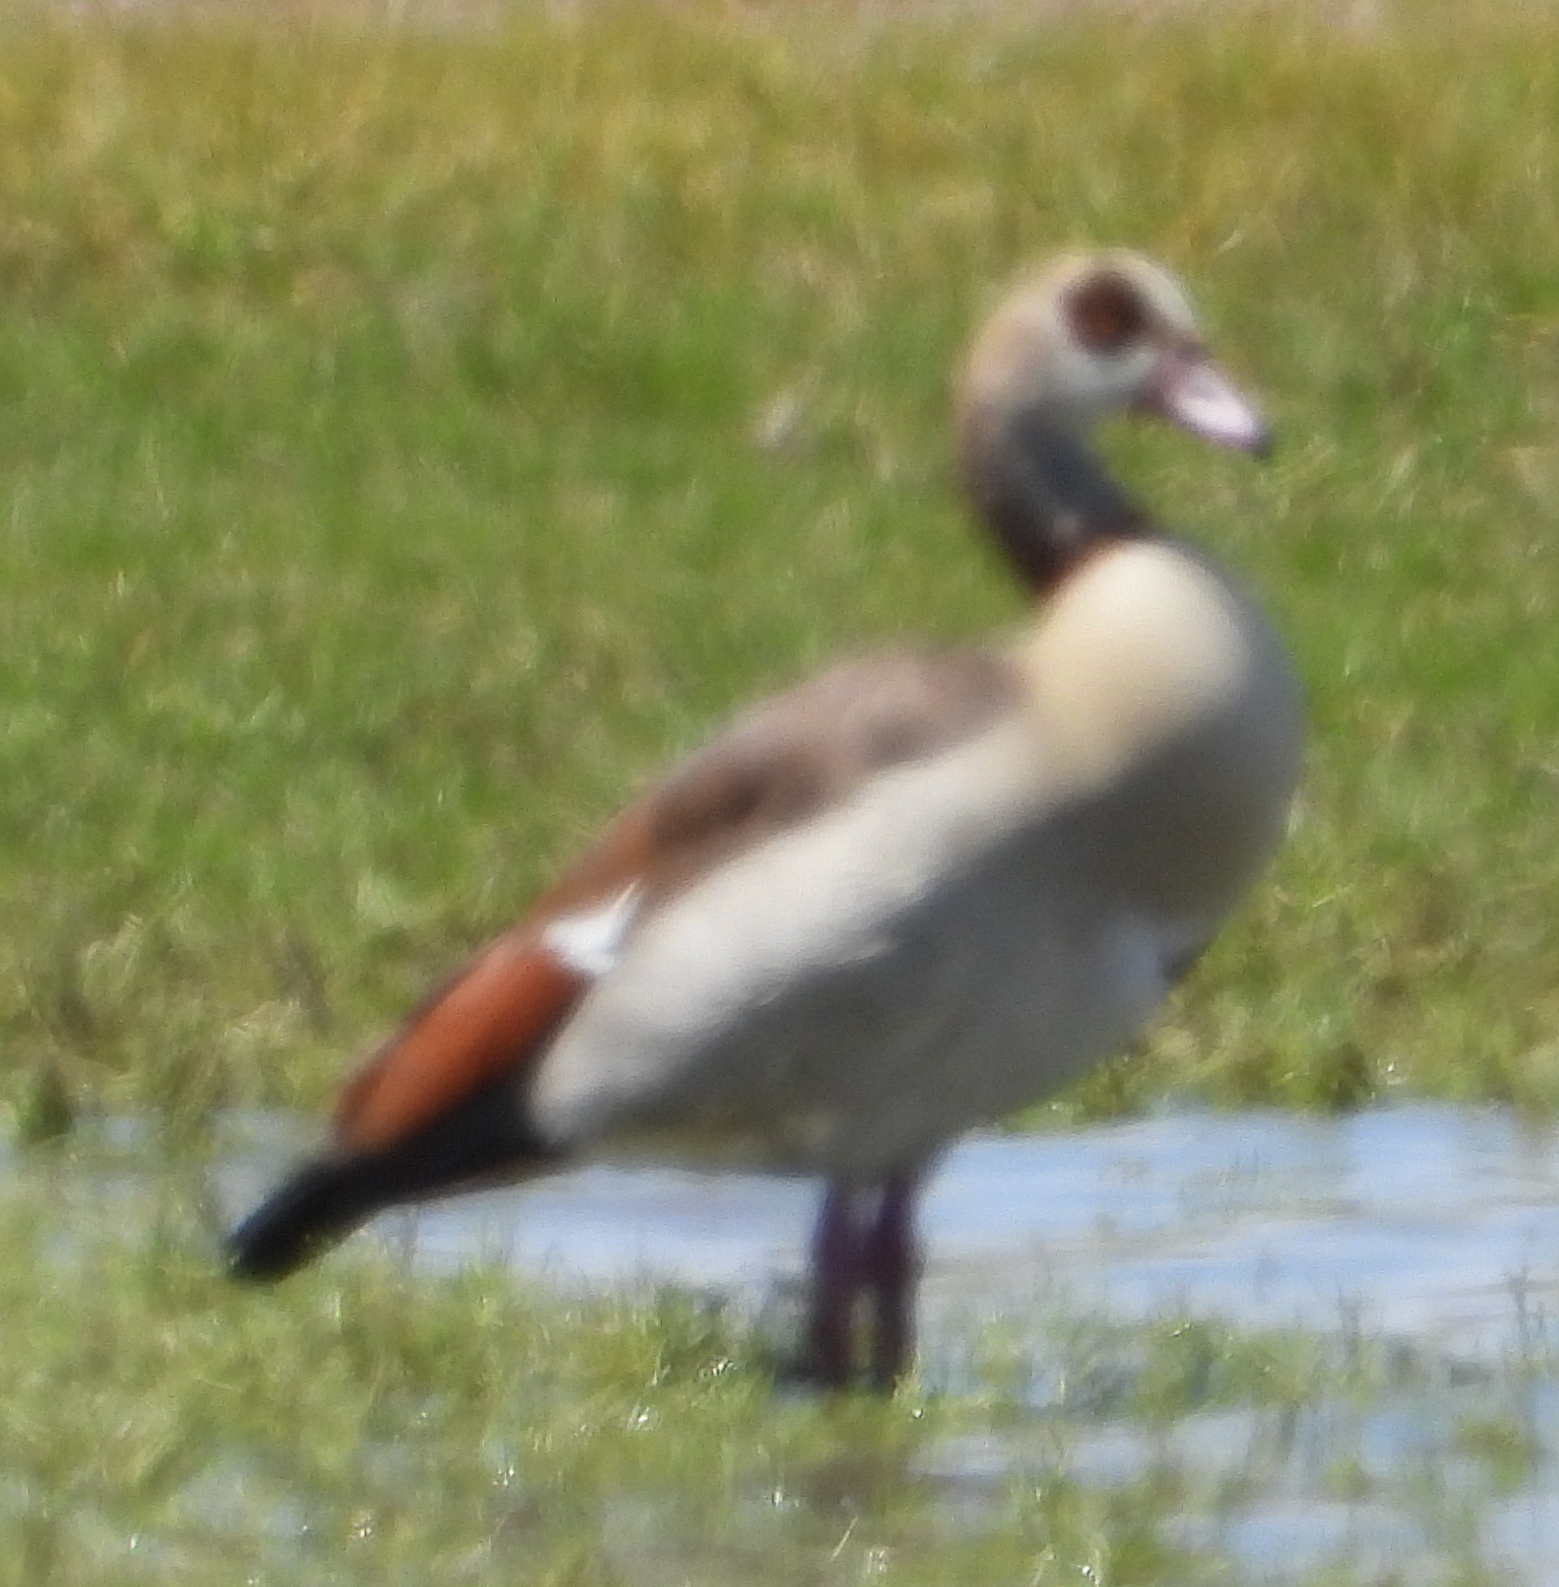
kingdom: Animalia
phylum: Chordata
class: Aves
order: Anseriformes
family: Anatidae
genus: Alopochen
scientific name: Alopochen aegyptiaca
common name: Egyptian goose
